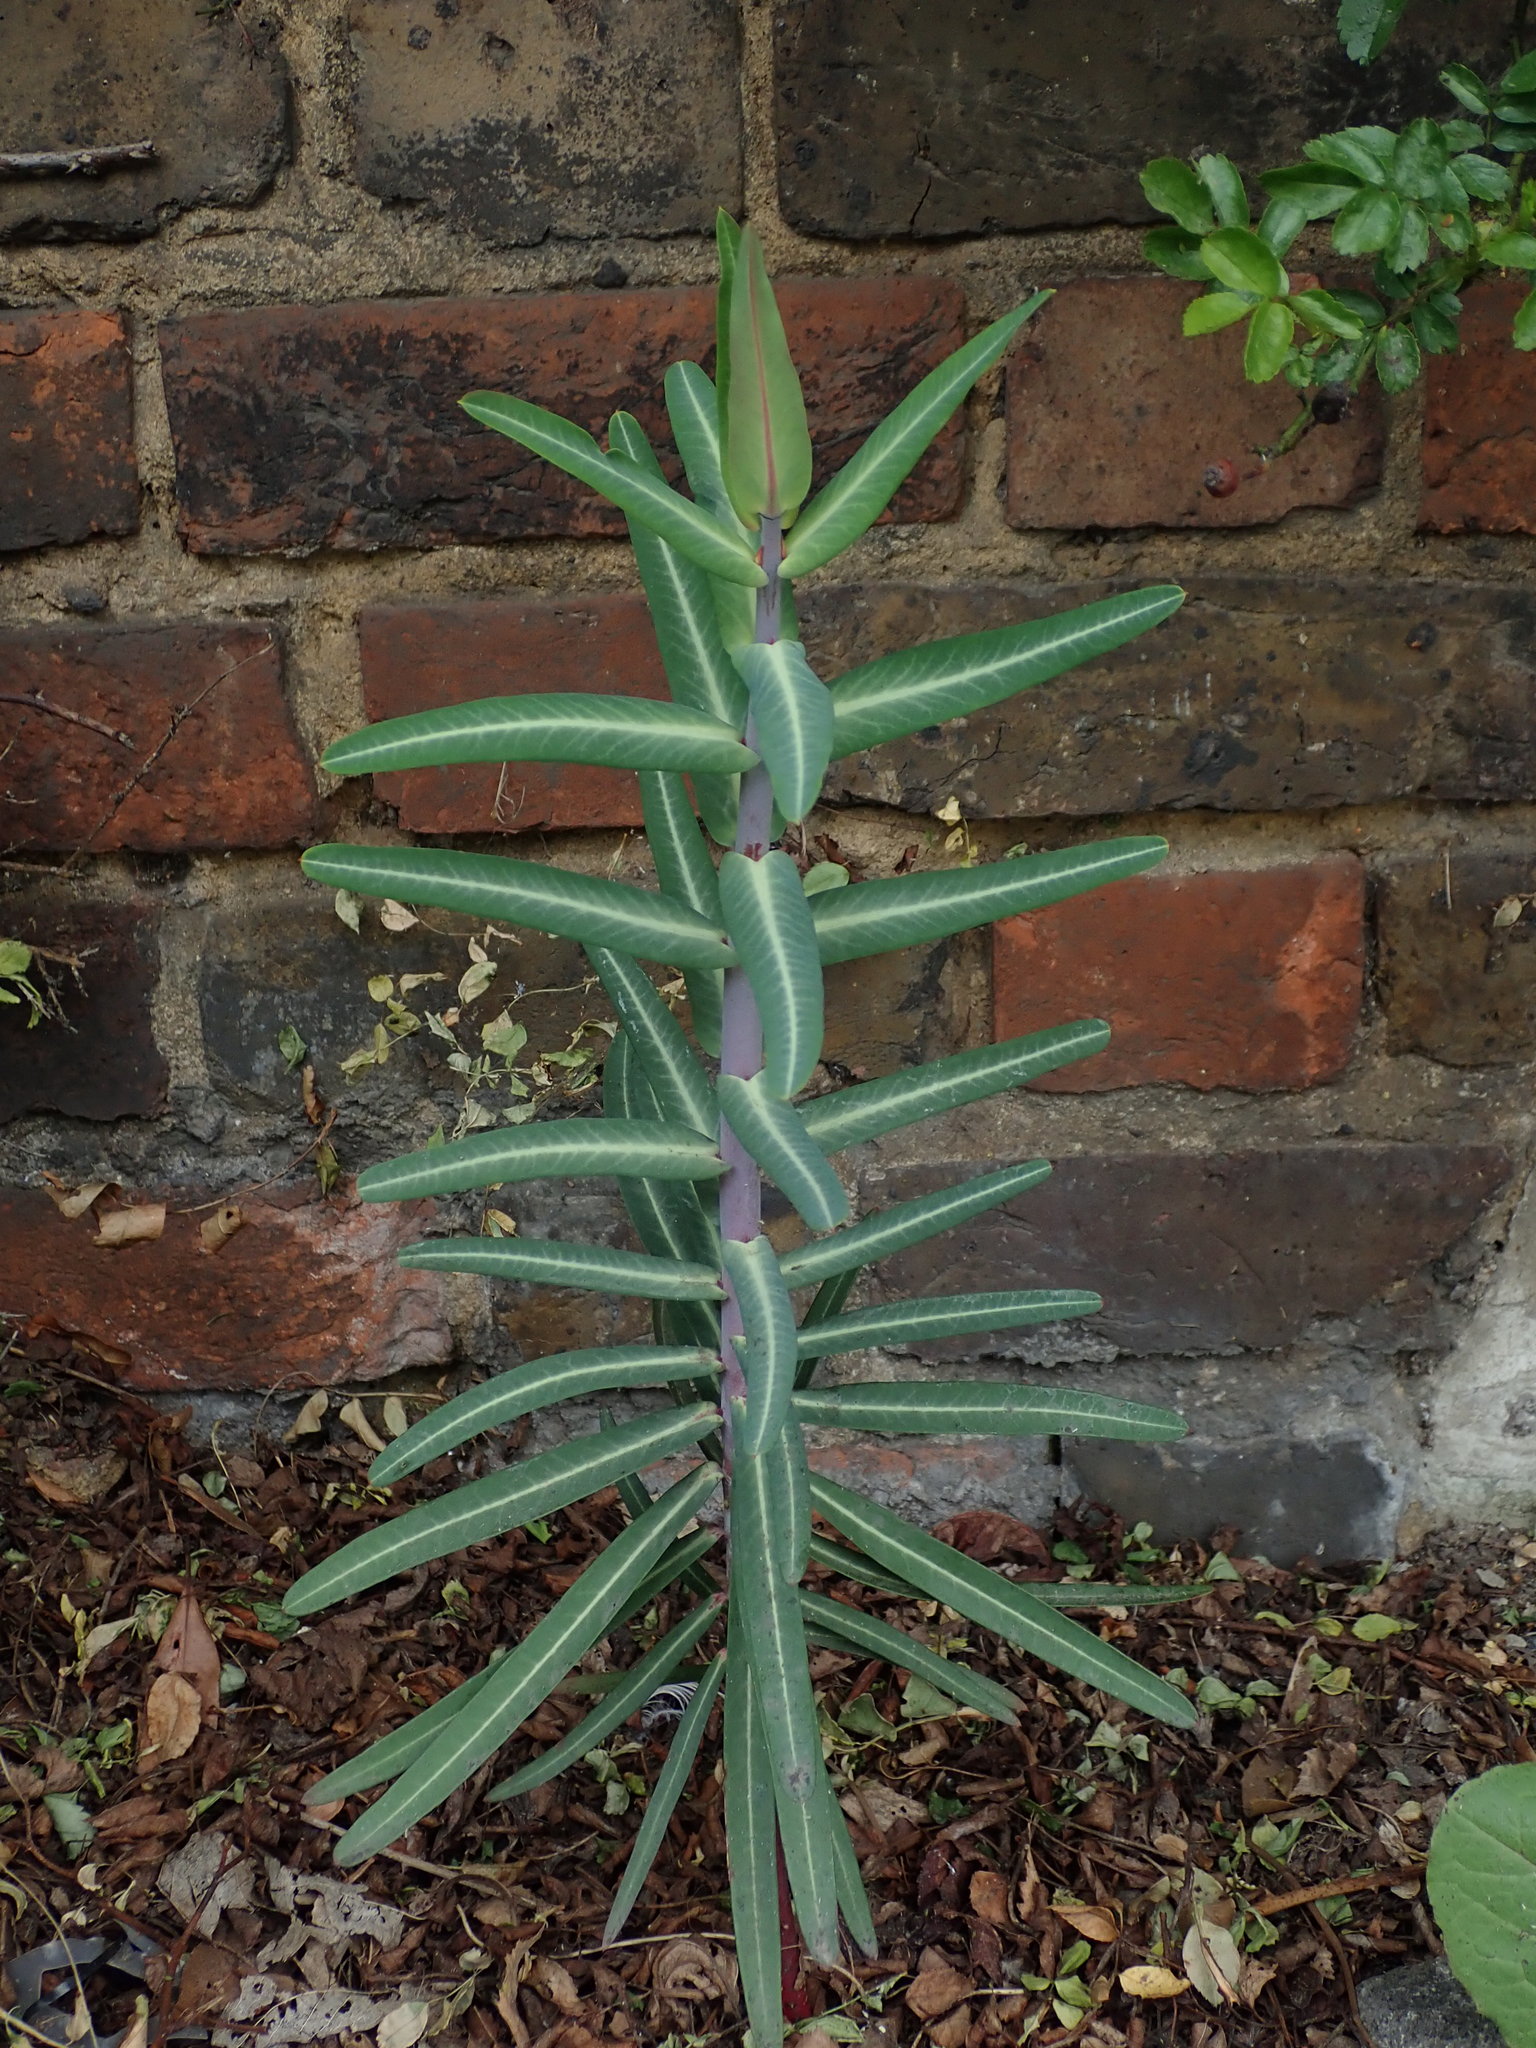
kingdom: Plantae
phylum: Tracheophyta
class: Magnoliopsida
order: Malpighiales
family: Euphorbiaceae
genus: Euphorbia
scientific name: Euphorbia lathyris
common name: Caper spurge
